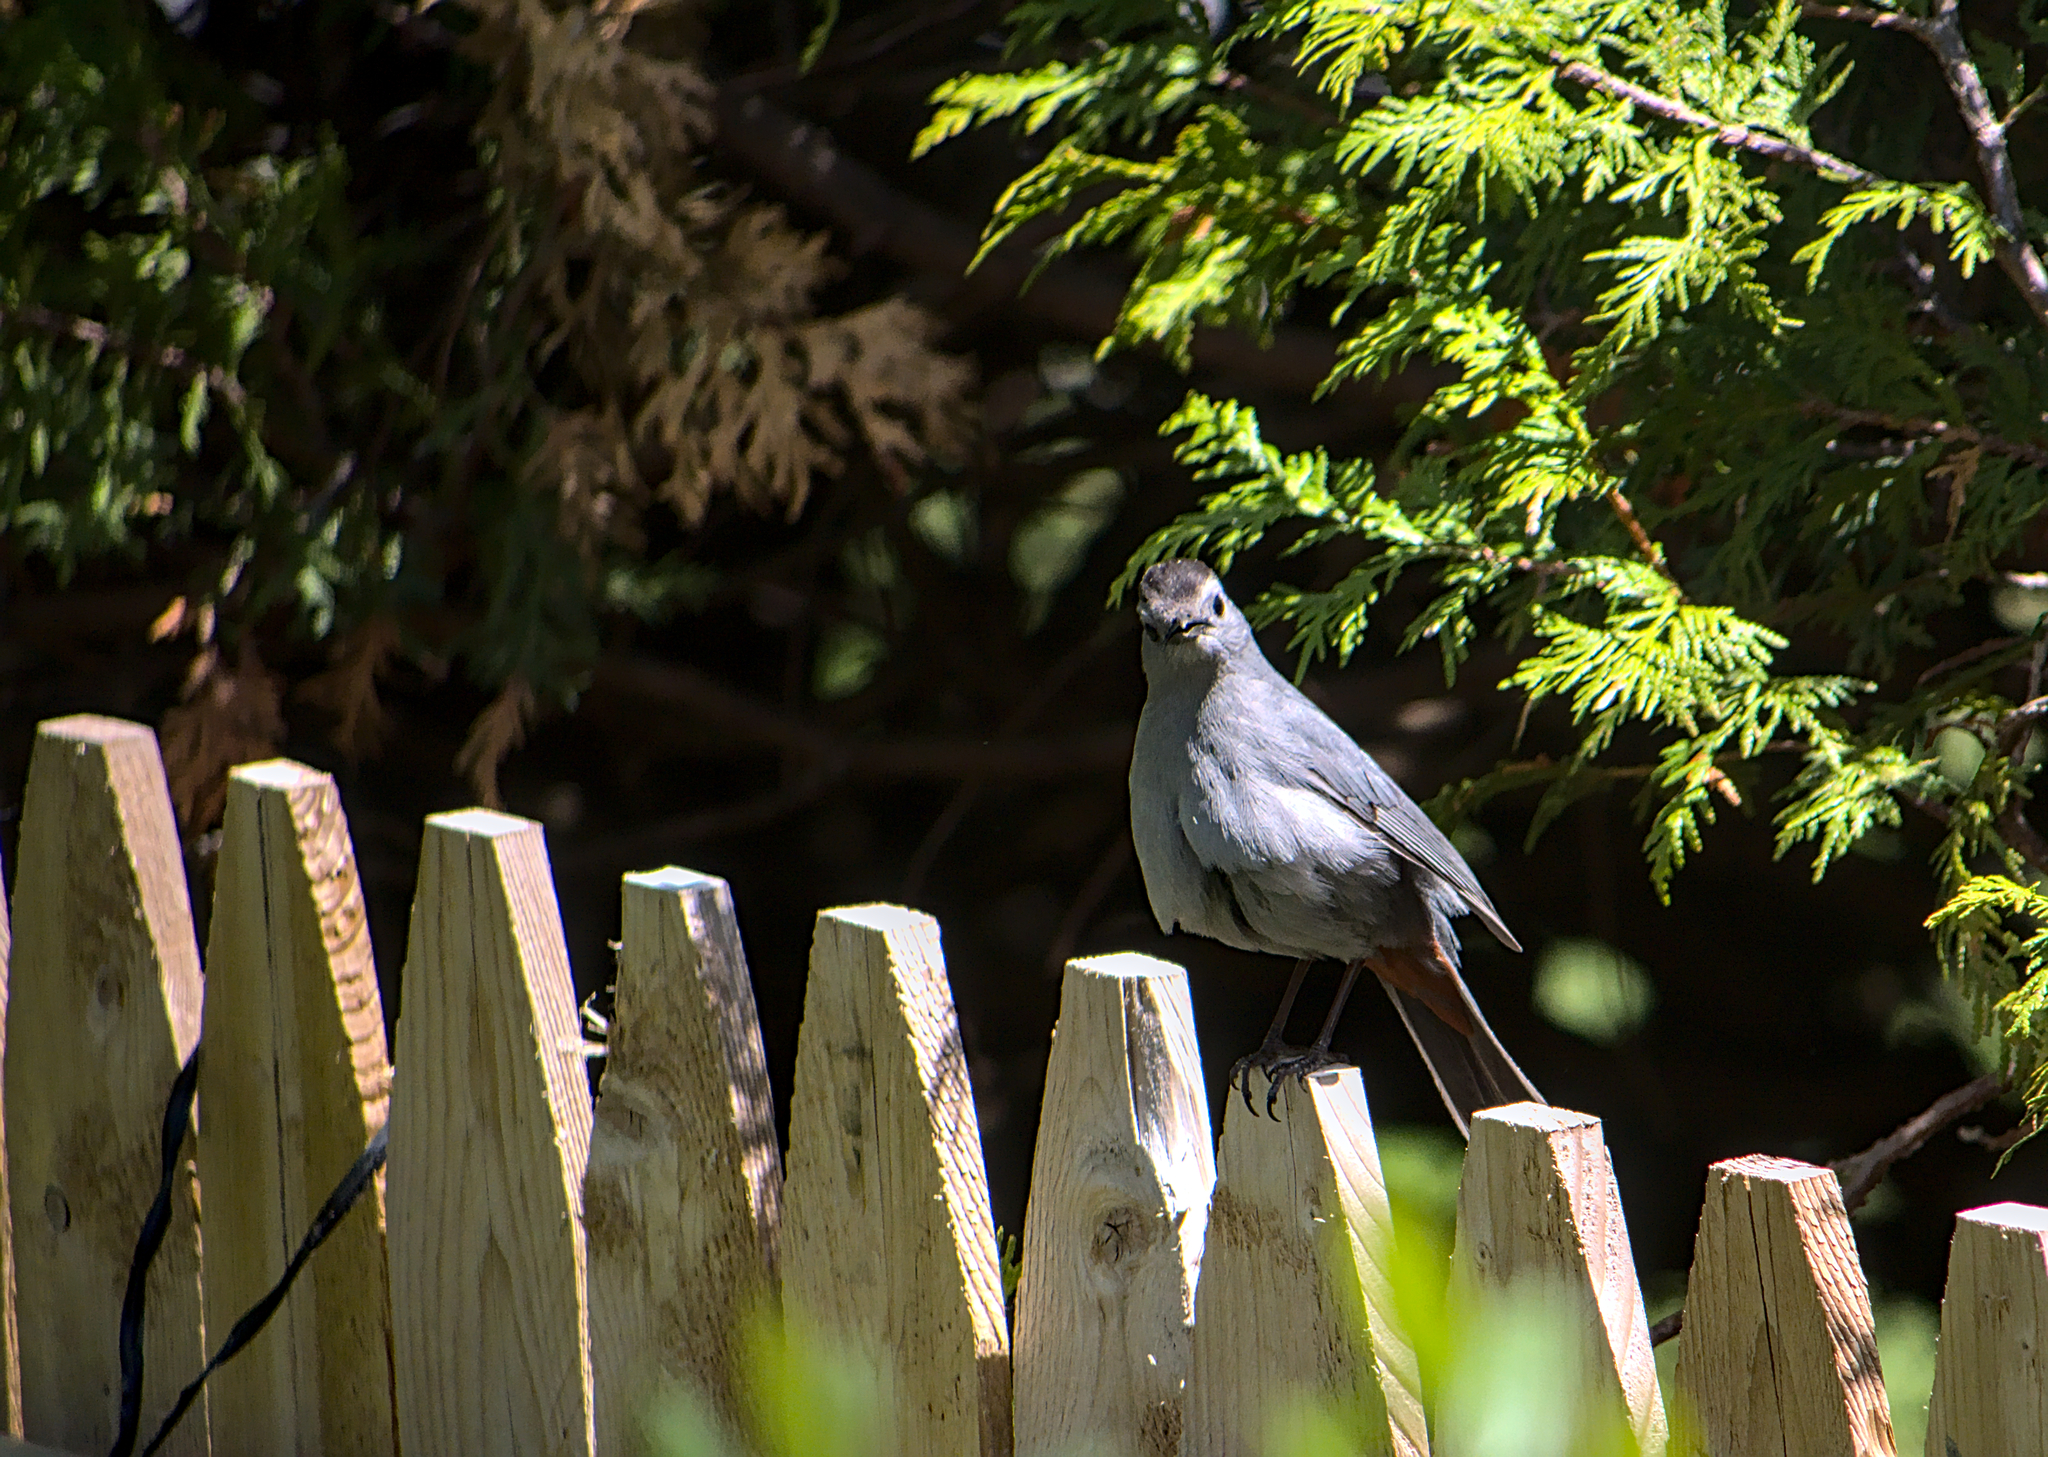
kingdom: Animalia
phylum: Chordata
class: Aves
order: Passeriformes
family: Mimidae
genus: Dumetella
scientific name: Dumetella carolinensis
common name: Gray catbird
